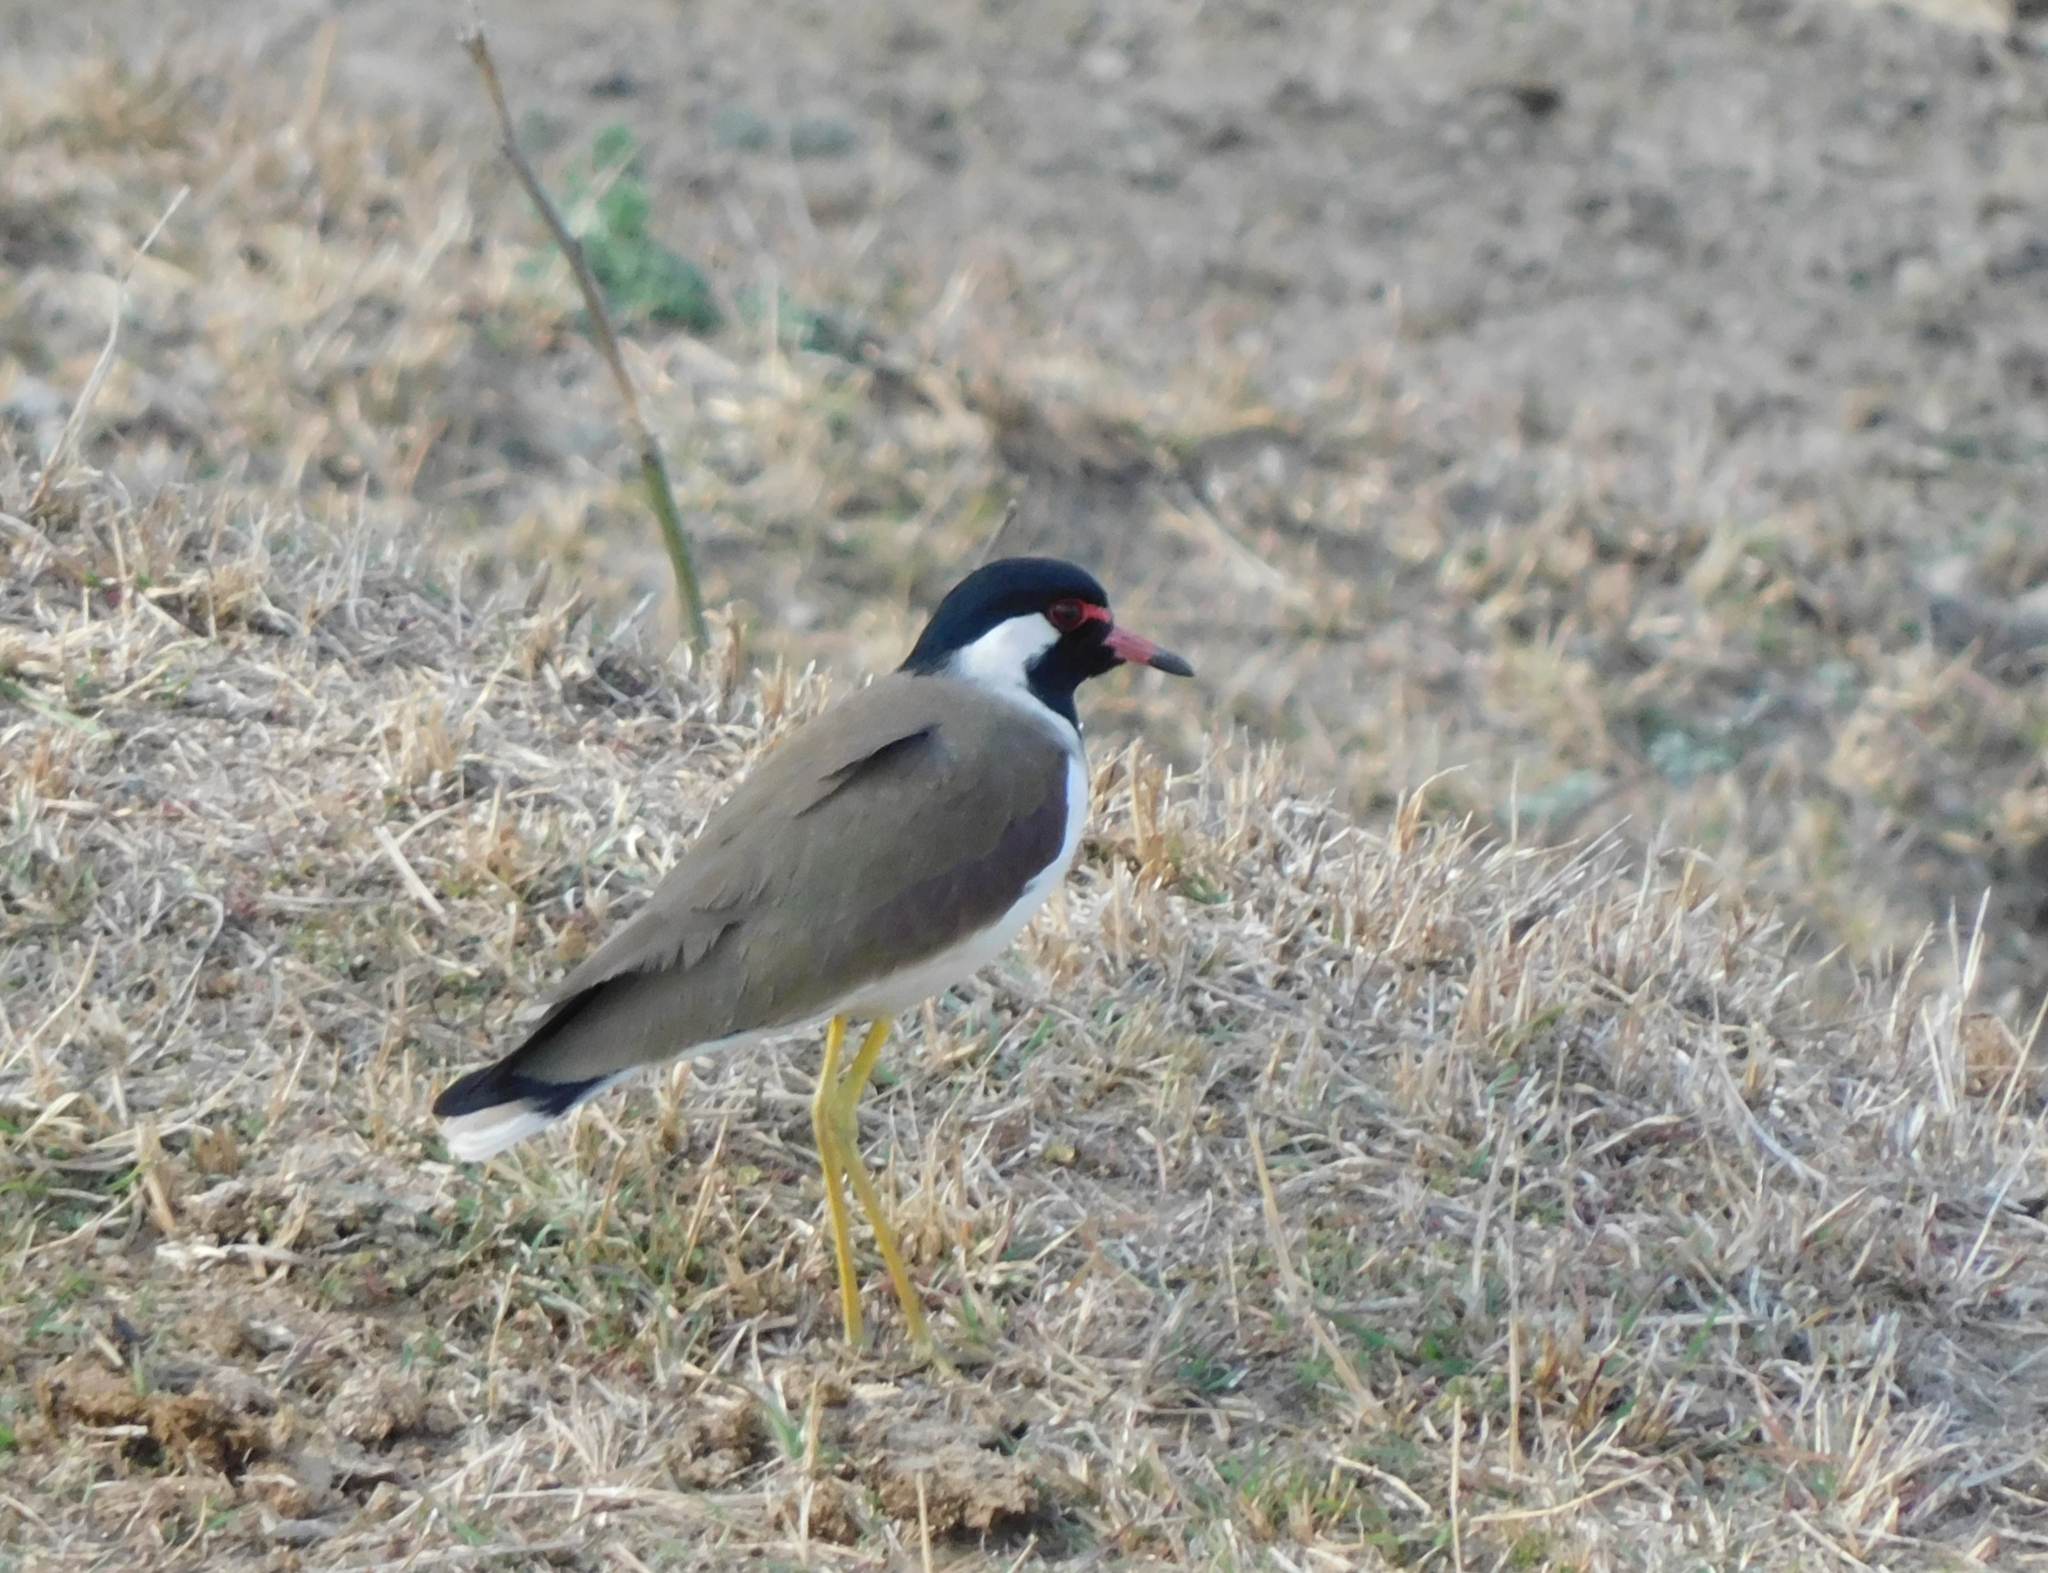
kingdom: Animalia
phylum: Chordata
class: Aves
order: Charadriiformes
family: Charadriidae
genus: Vanellus
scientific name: Vanellus indicus
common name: Red-wattled lapwing
